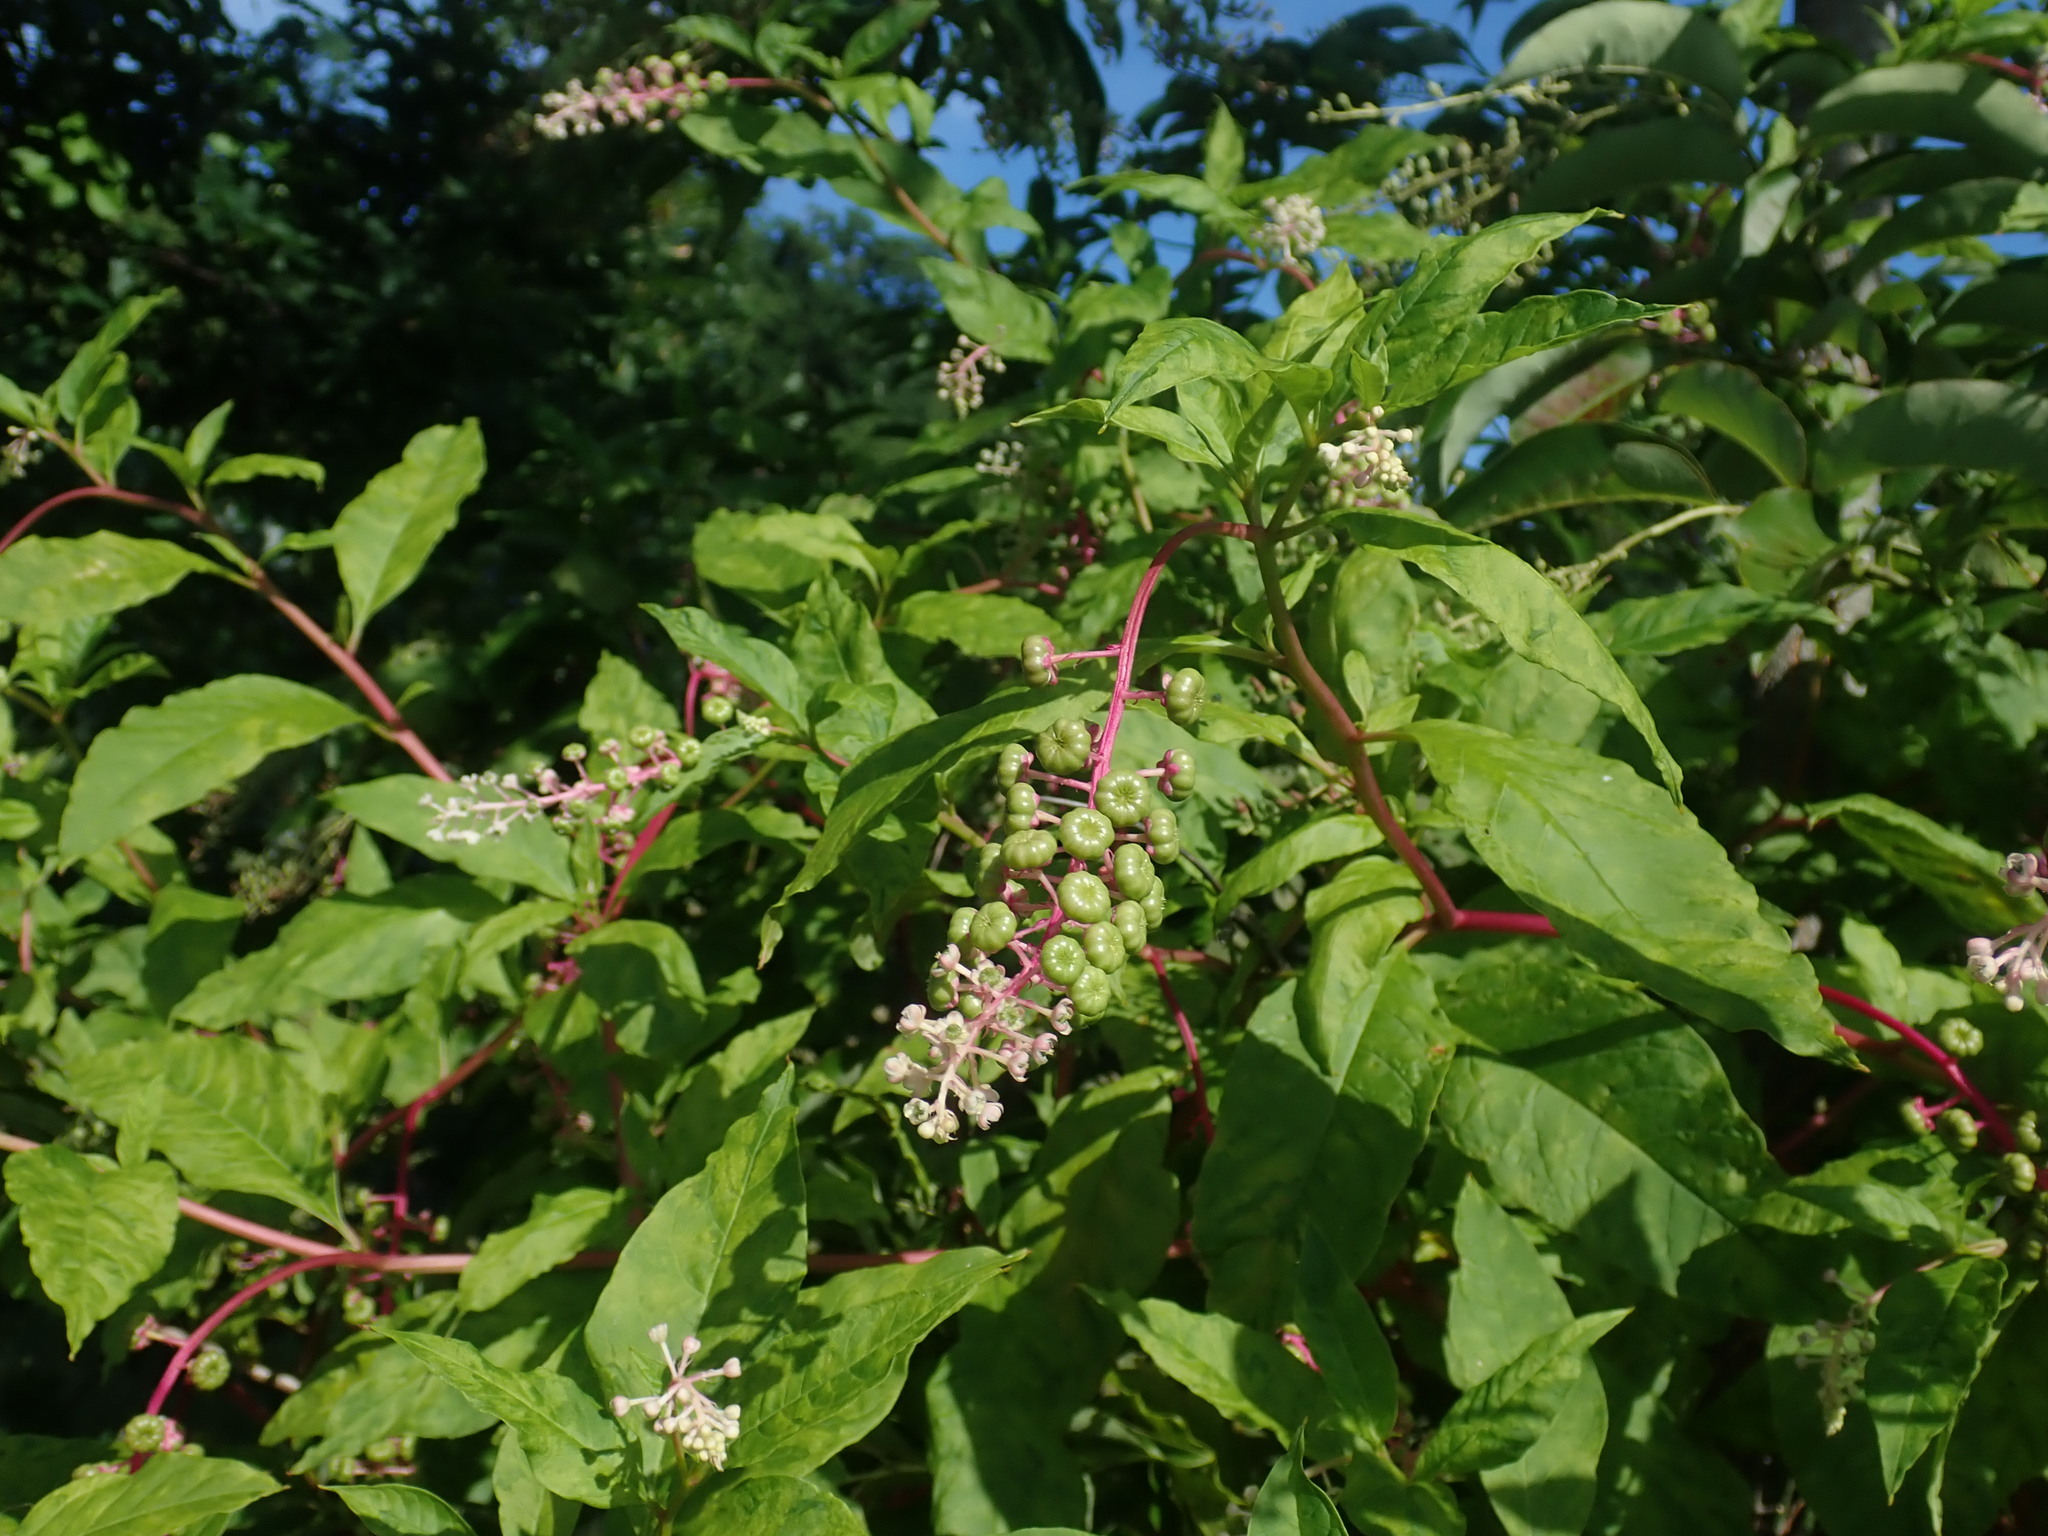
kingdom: Plantae
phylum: Tracheophyta
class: Magnoliopsida
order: Caryophyllales
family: Phytolaccaceae
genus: Phytolacca
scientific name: Phytolacca americana
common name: American pokeweed
